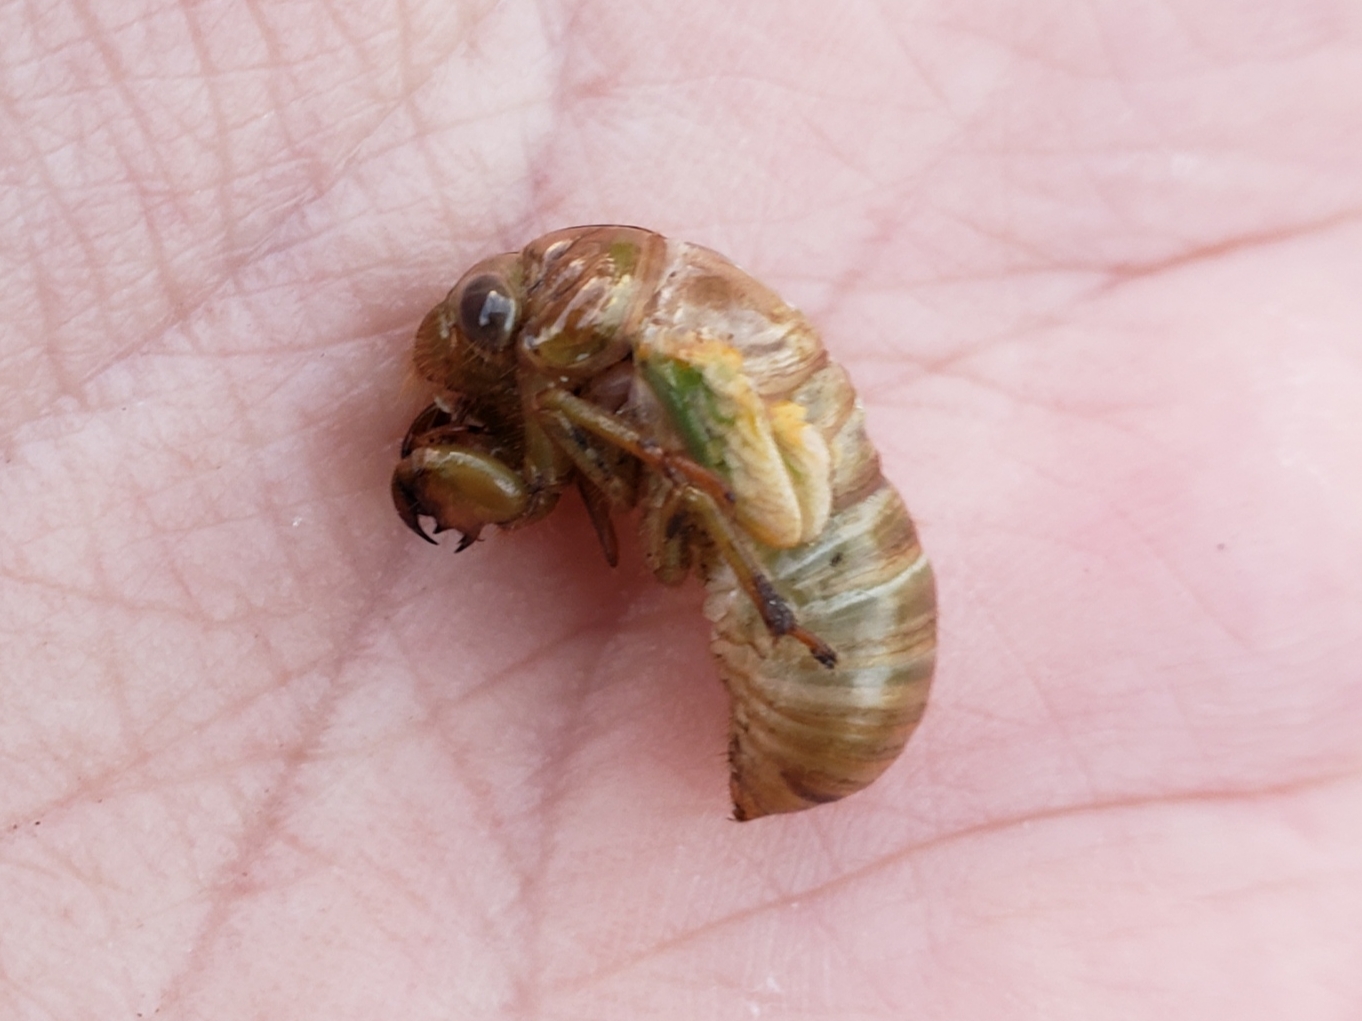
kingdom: Animalia
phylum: Arthropoda
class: Insecta
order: Hemiptera
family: Cicadidae
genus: Diceroprocta
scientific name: Diceroprocta olympusa
